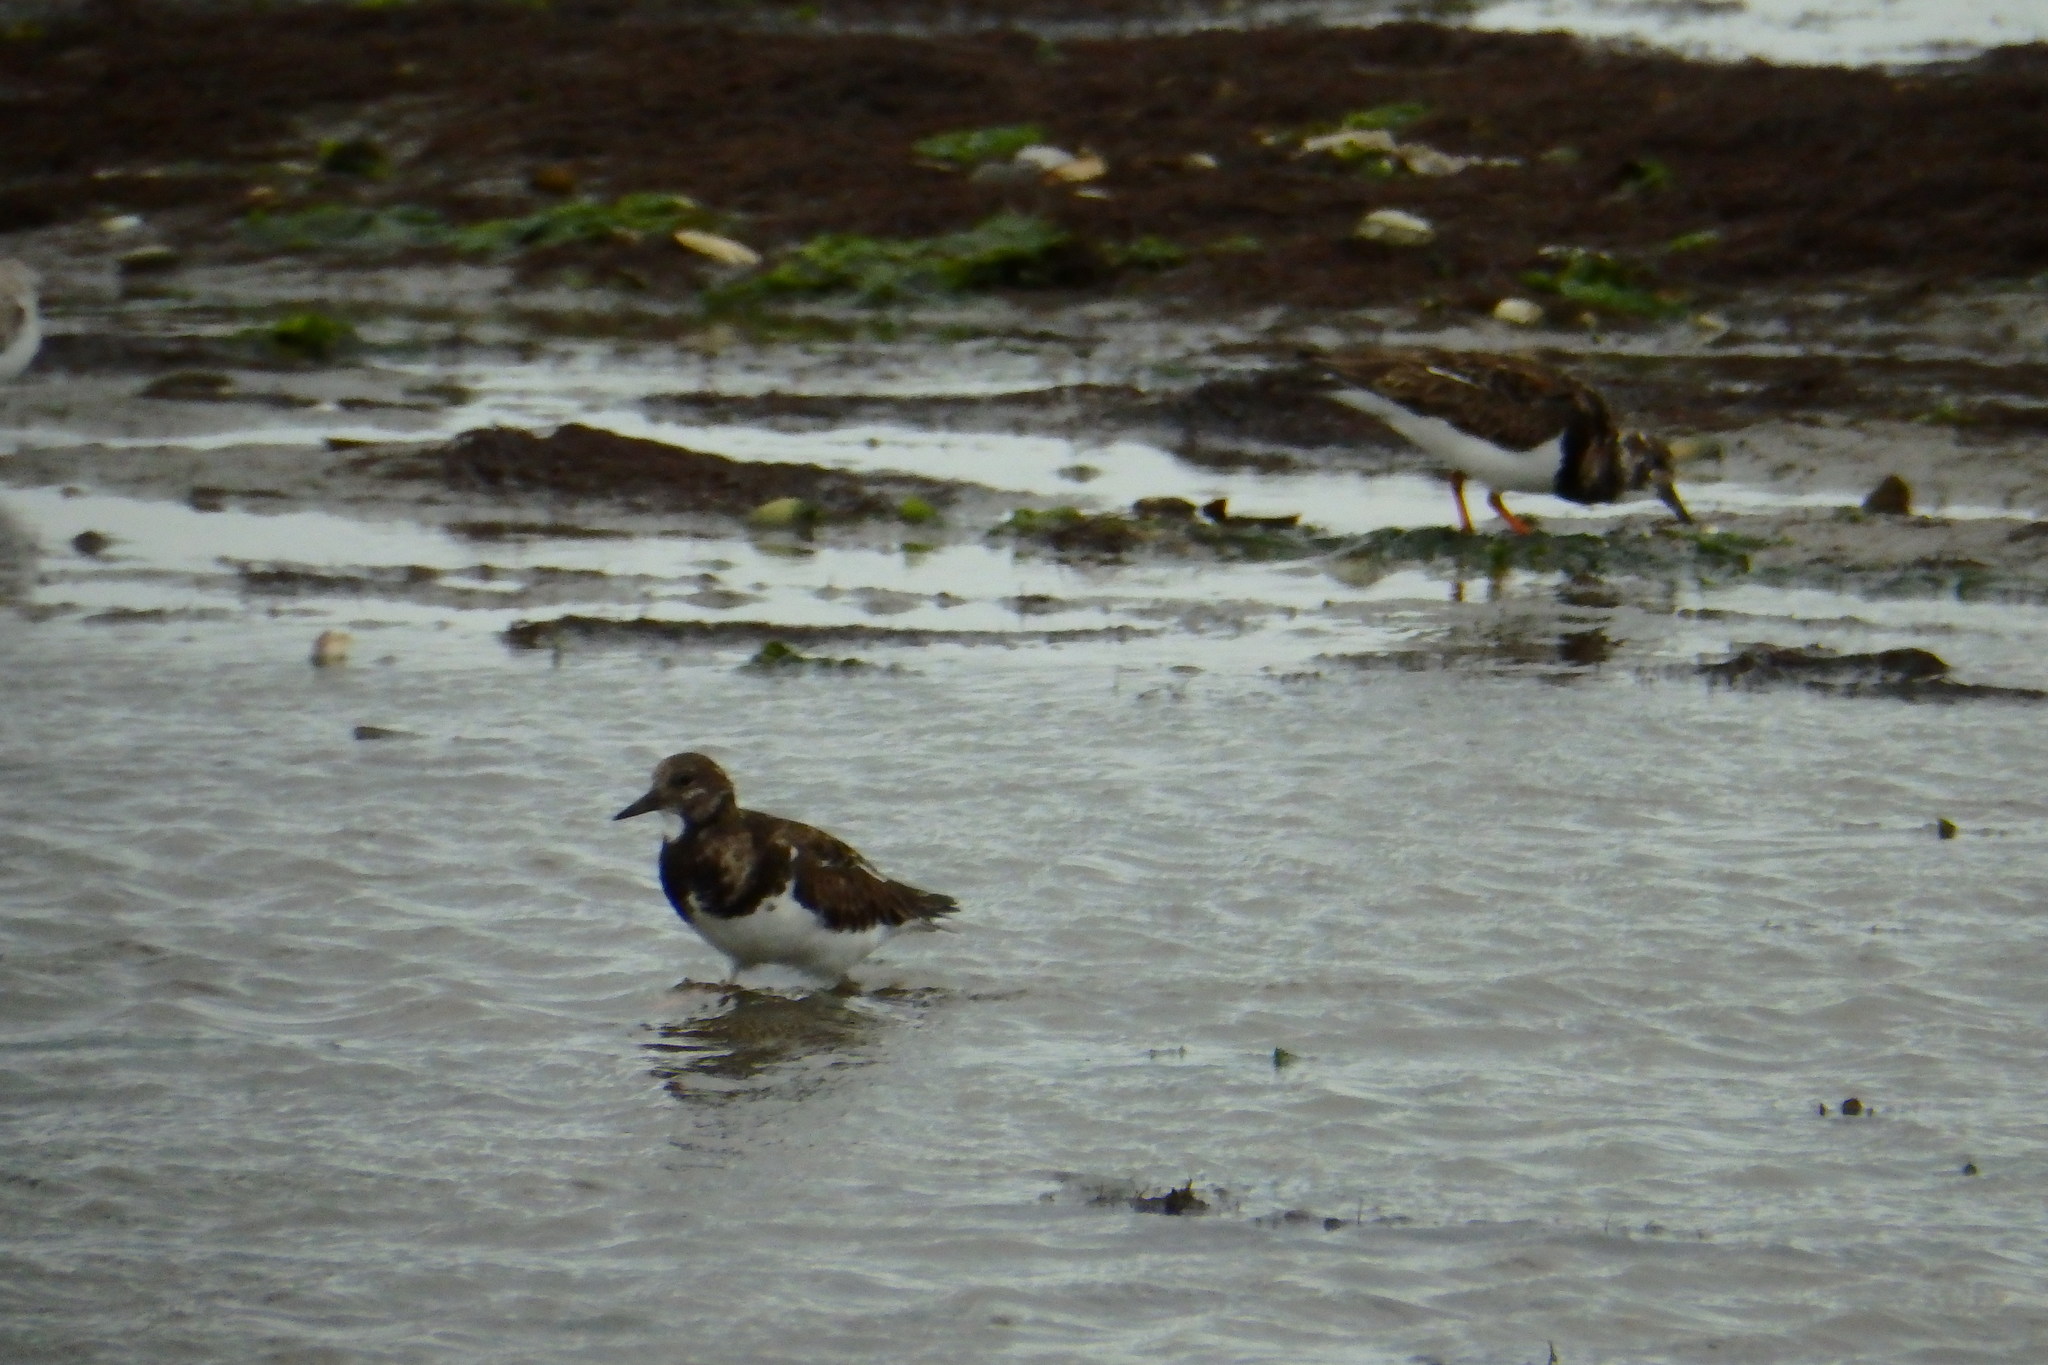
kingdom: Animalia
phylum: Chordata
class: Aves
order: Charadriiformes
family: Scolopacidae
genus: Arenaria
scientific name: Arenaria interpres
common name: Ruddy turnstone
